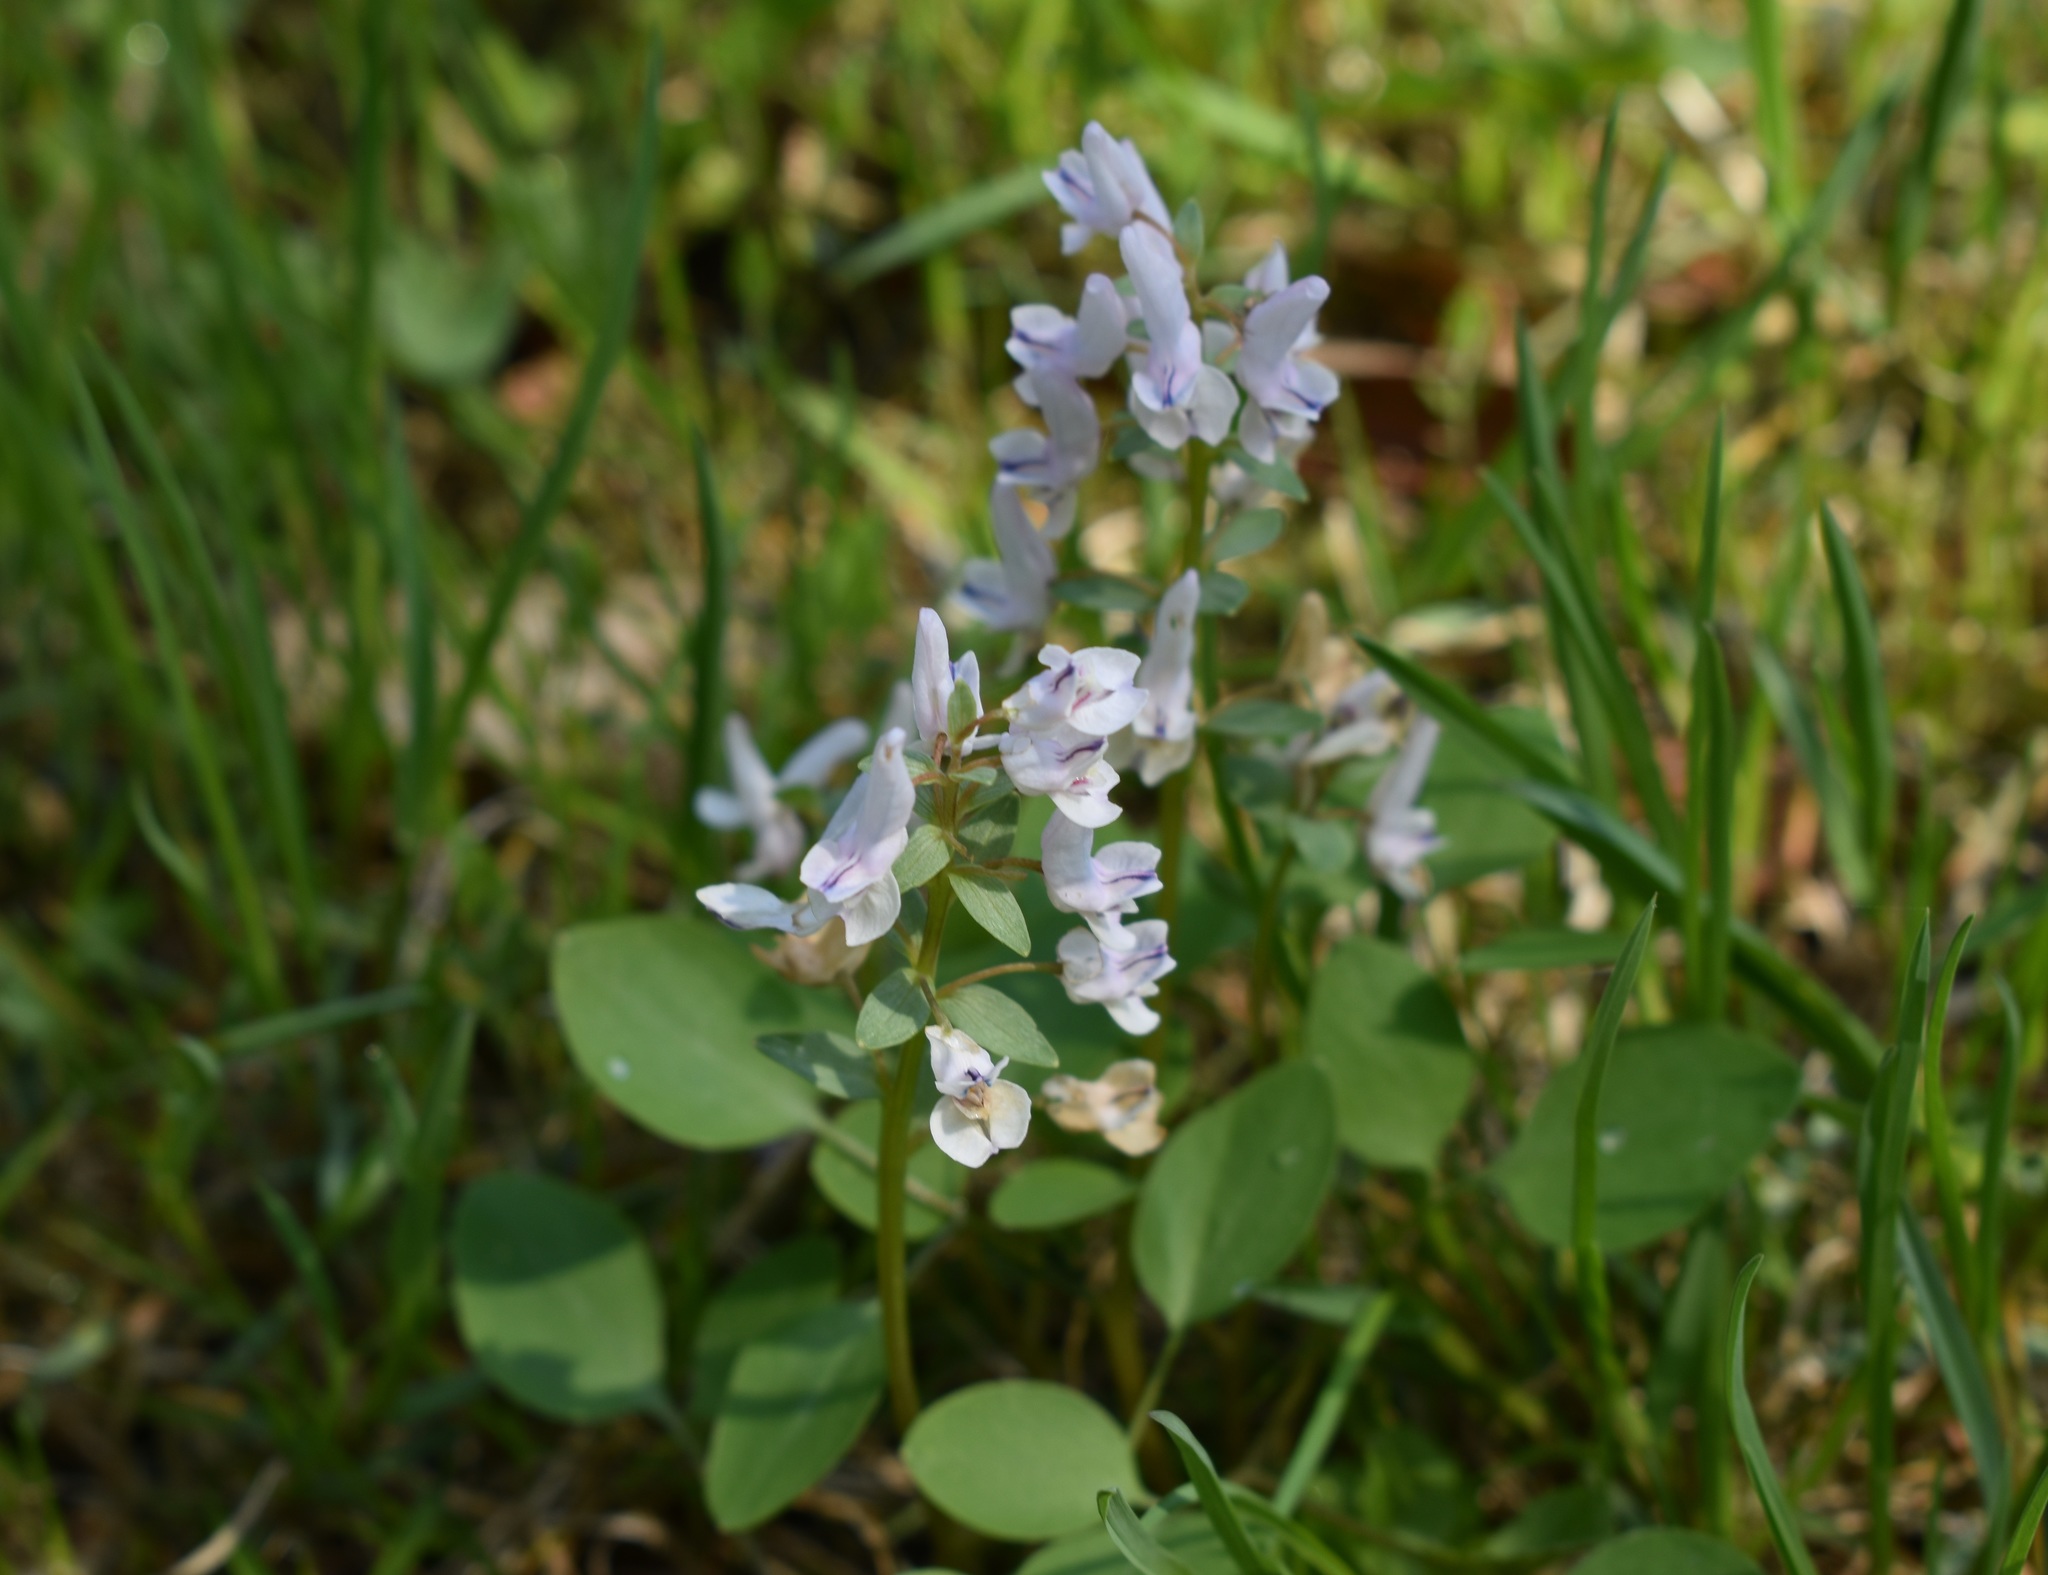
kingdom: Plantae
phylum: Tracheophyta
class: Magnoliopsida
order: Ranunculales
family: Papaveraceae
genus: Corydalis
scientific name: Corydalis repens
